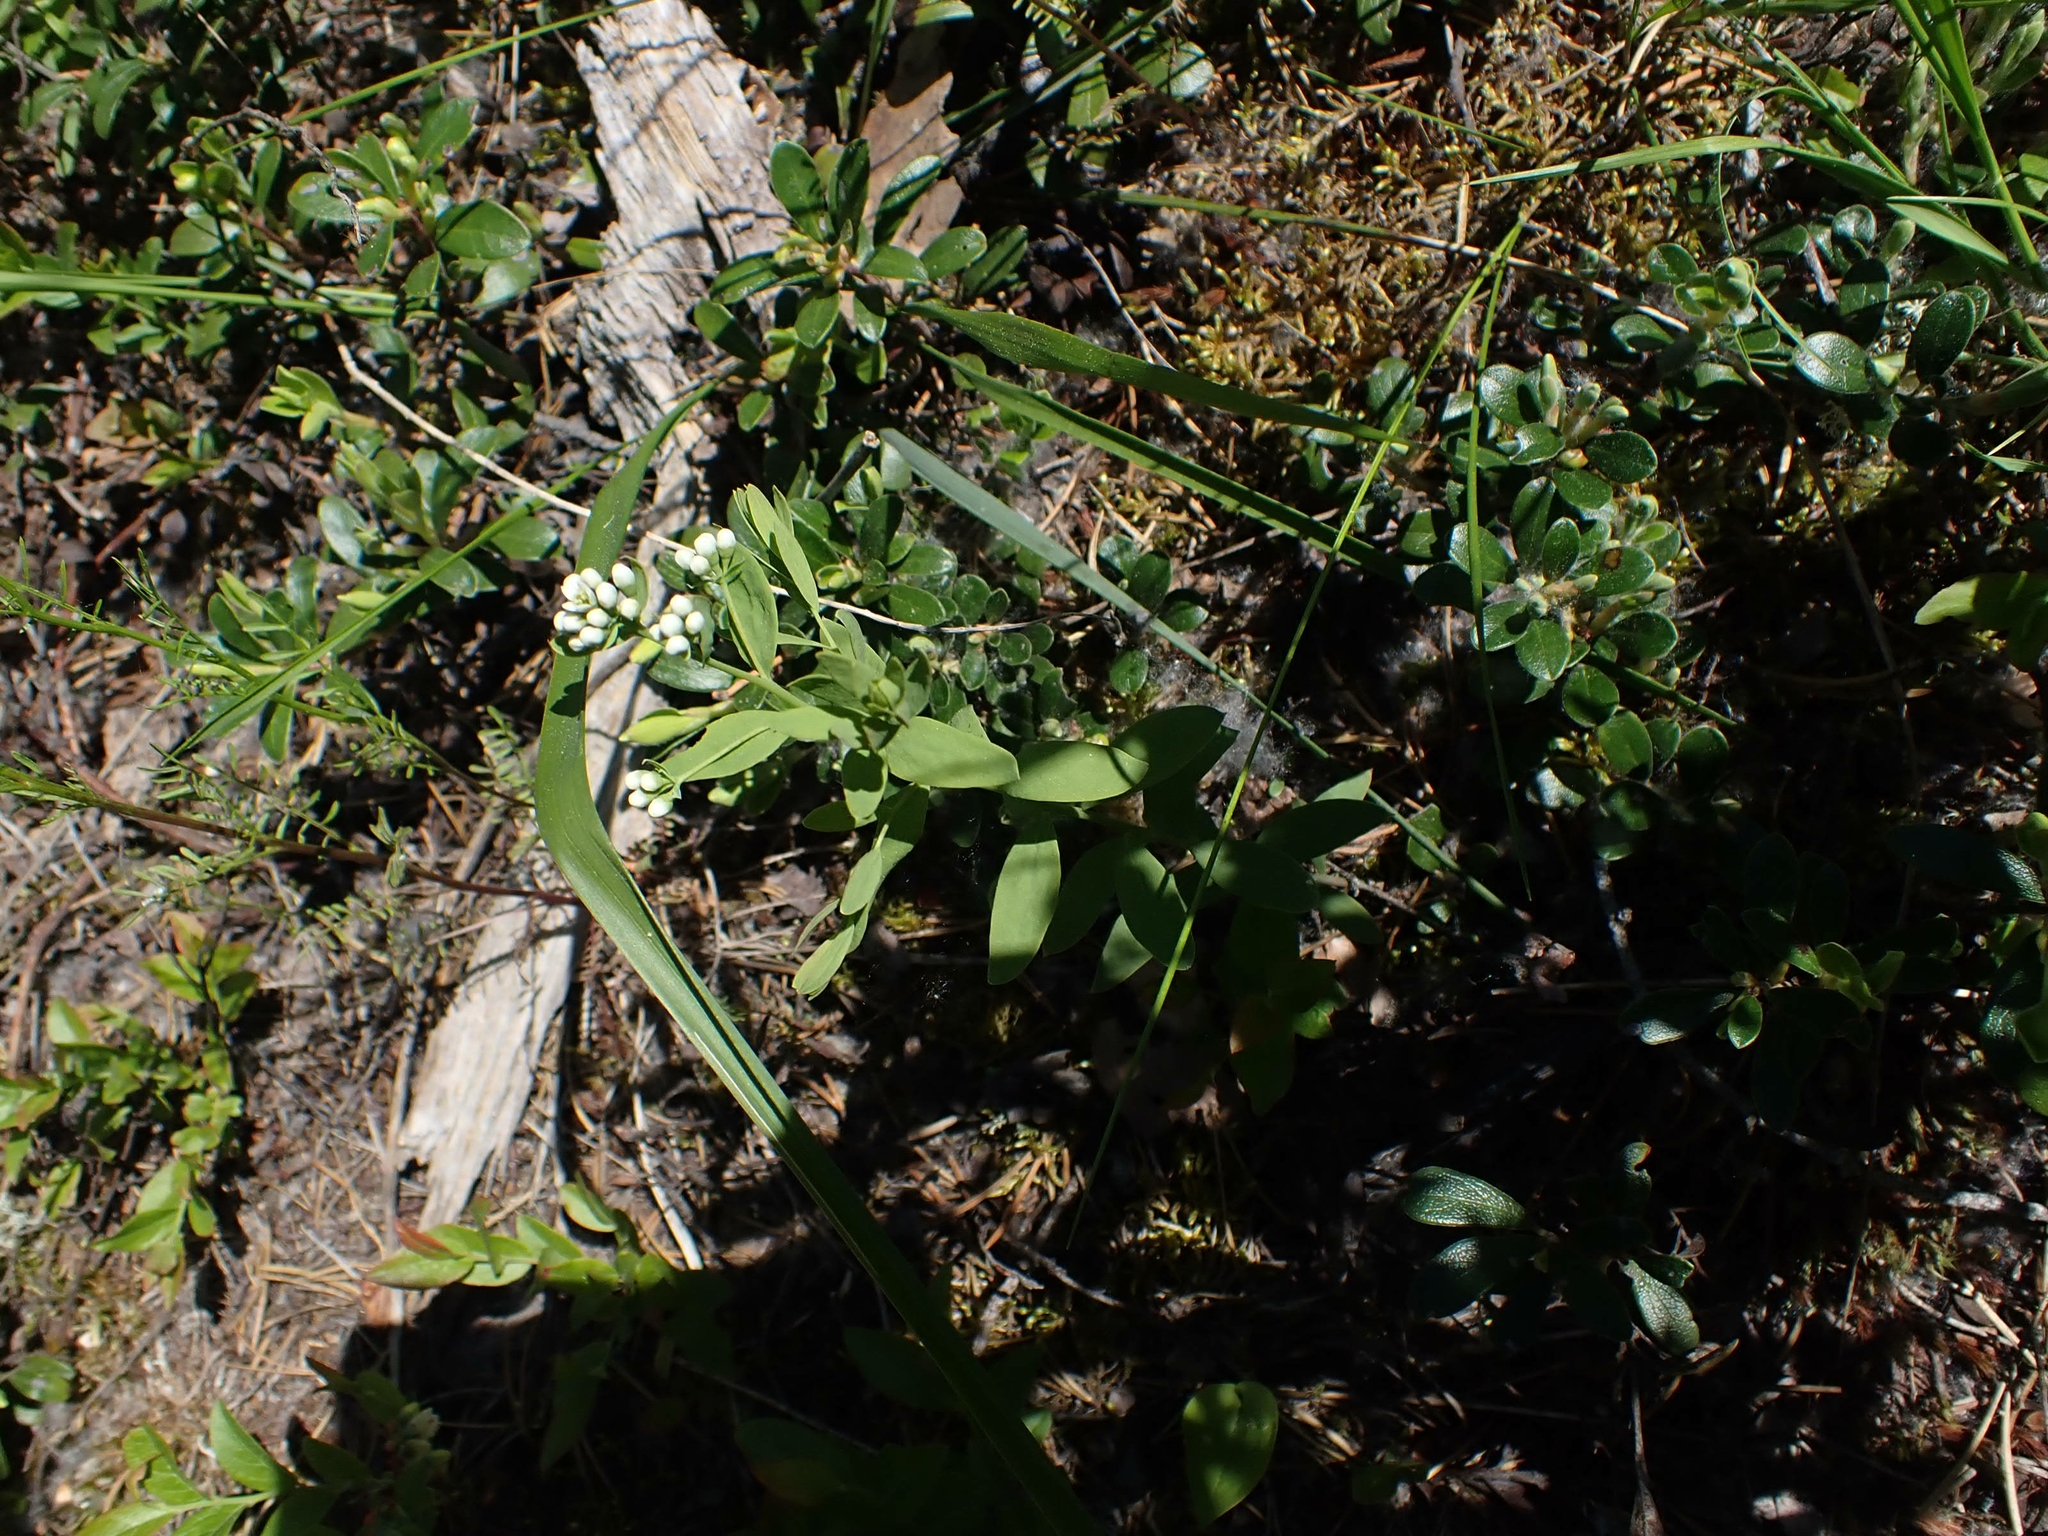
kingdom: Plantae
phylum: Tracheophyta
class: Magnoliopsida
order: Santalales
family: Comandraceae
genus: Comandra
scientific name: Comandra umbellata
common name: Bastard toadflax
